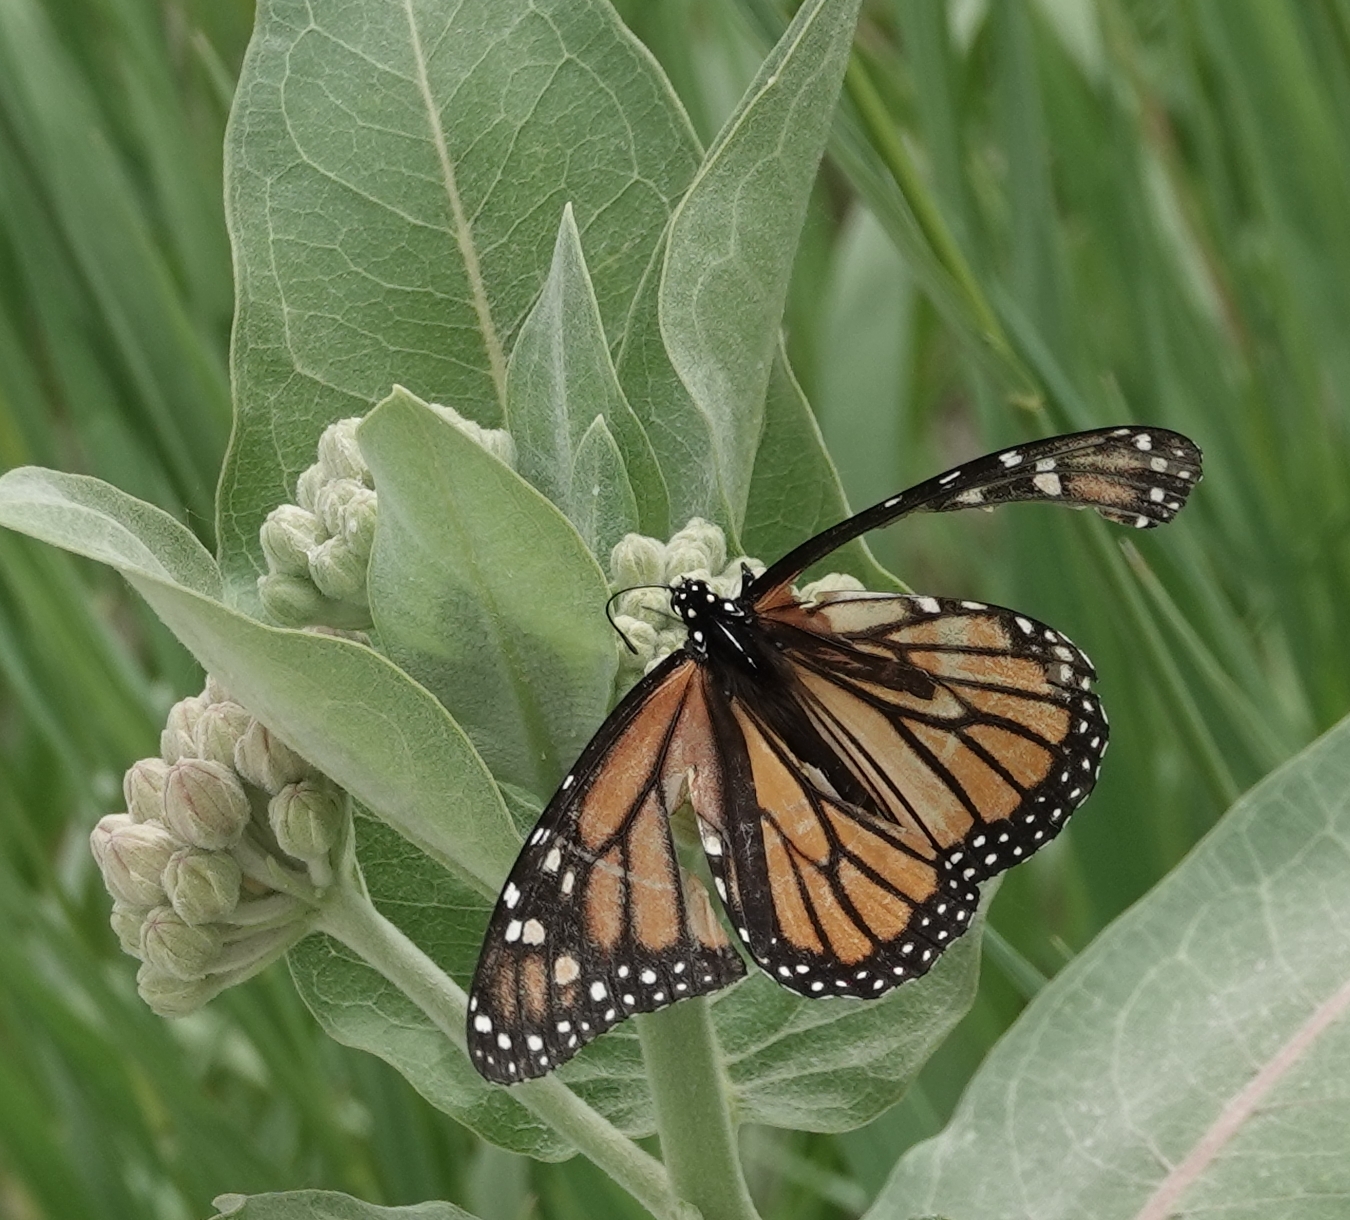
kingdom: Animalia
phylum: Arthropoda
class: Insecta
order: Lepidoptera
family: Nymphalidae
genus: Danaus
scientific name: Danaus plexippus
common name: Monarch
